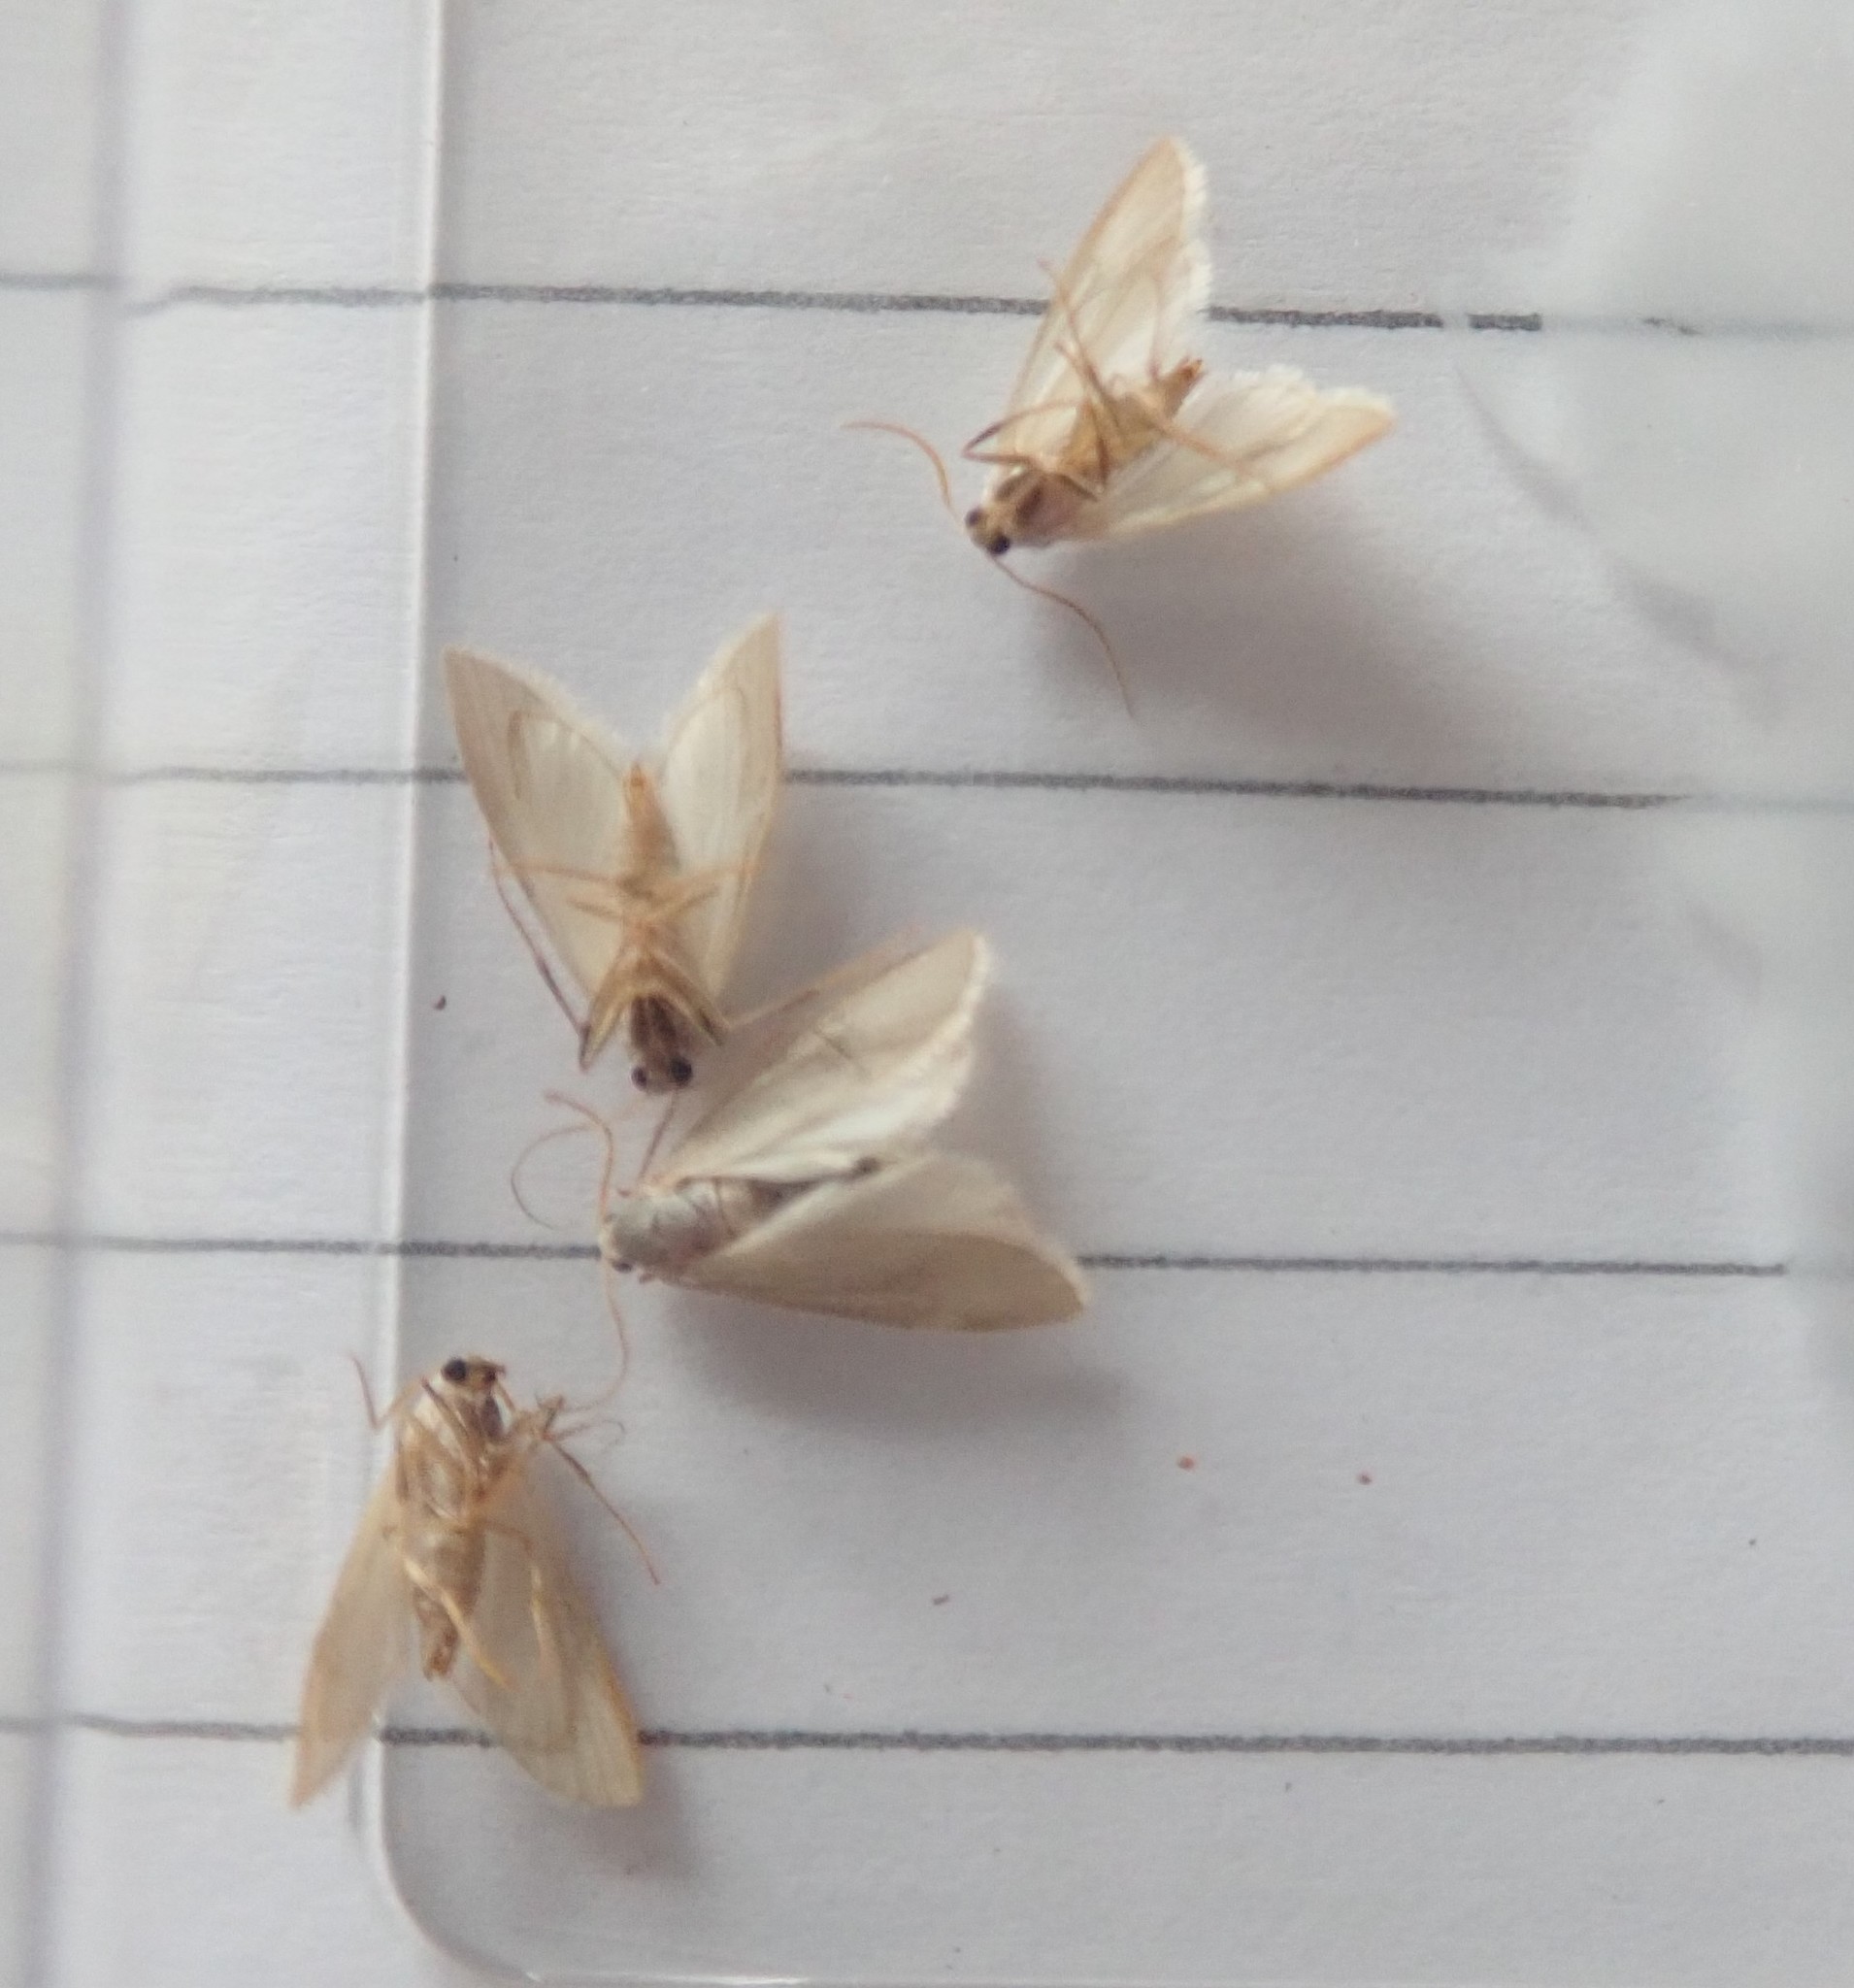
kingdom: Animalia
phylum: Arthropoda
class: Insecta
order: Lepidoptera
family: Crambidae
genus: Acentria
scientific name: Acentria ephemerella
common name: European water moth
